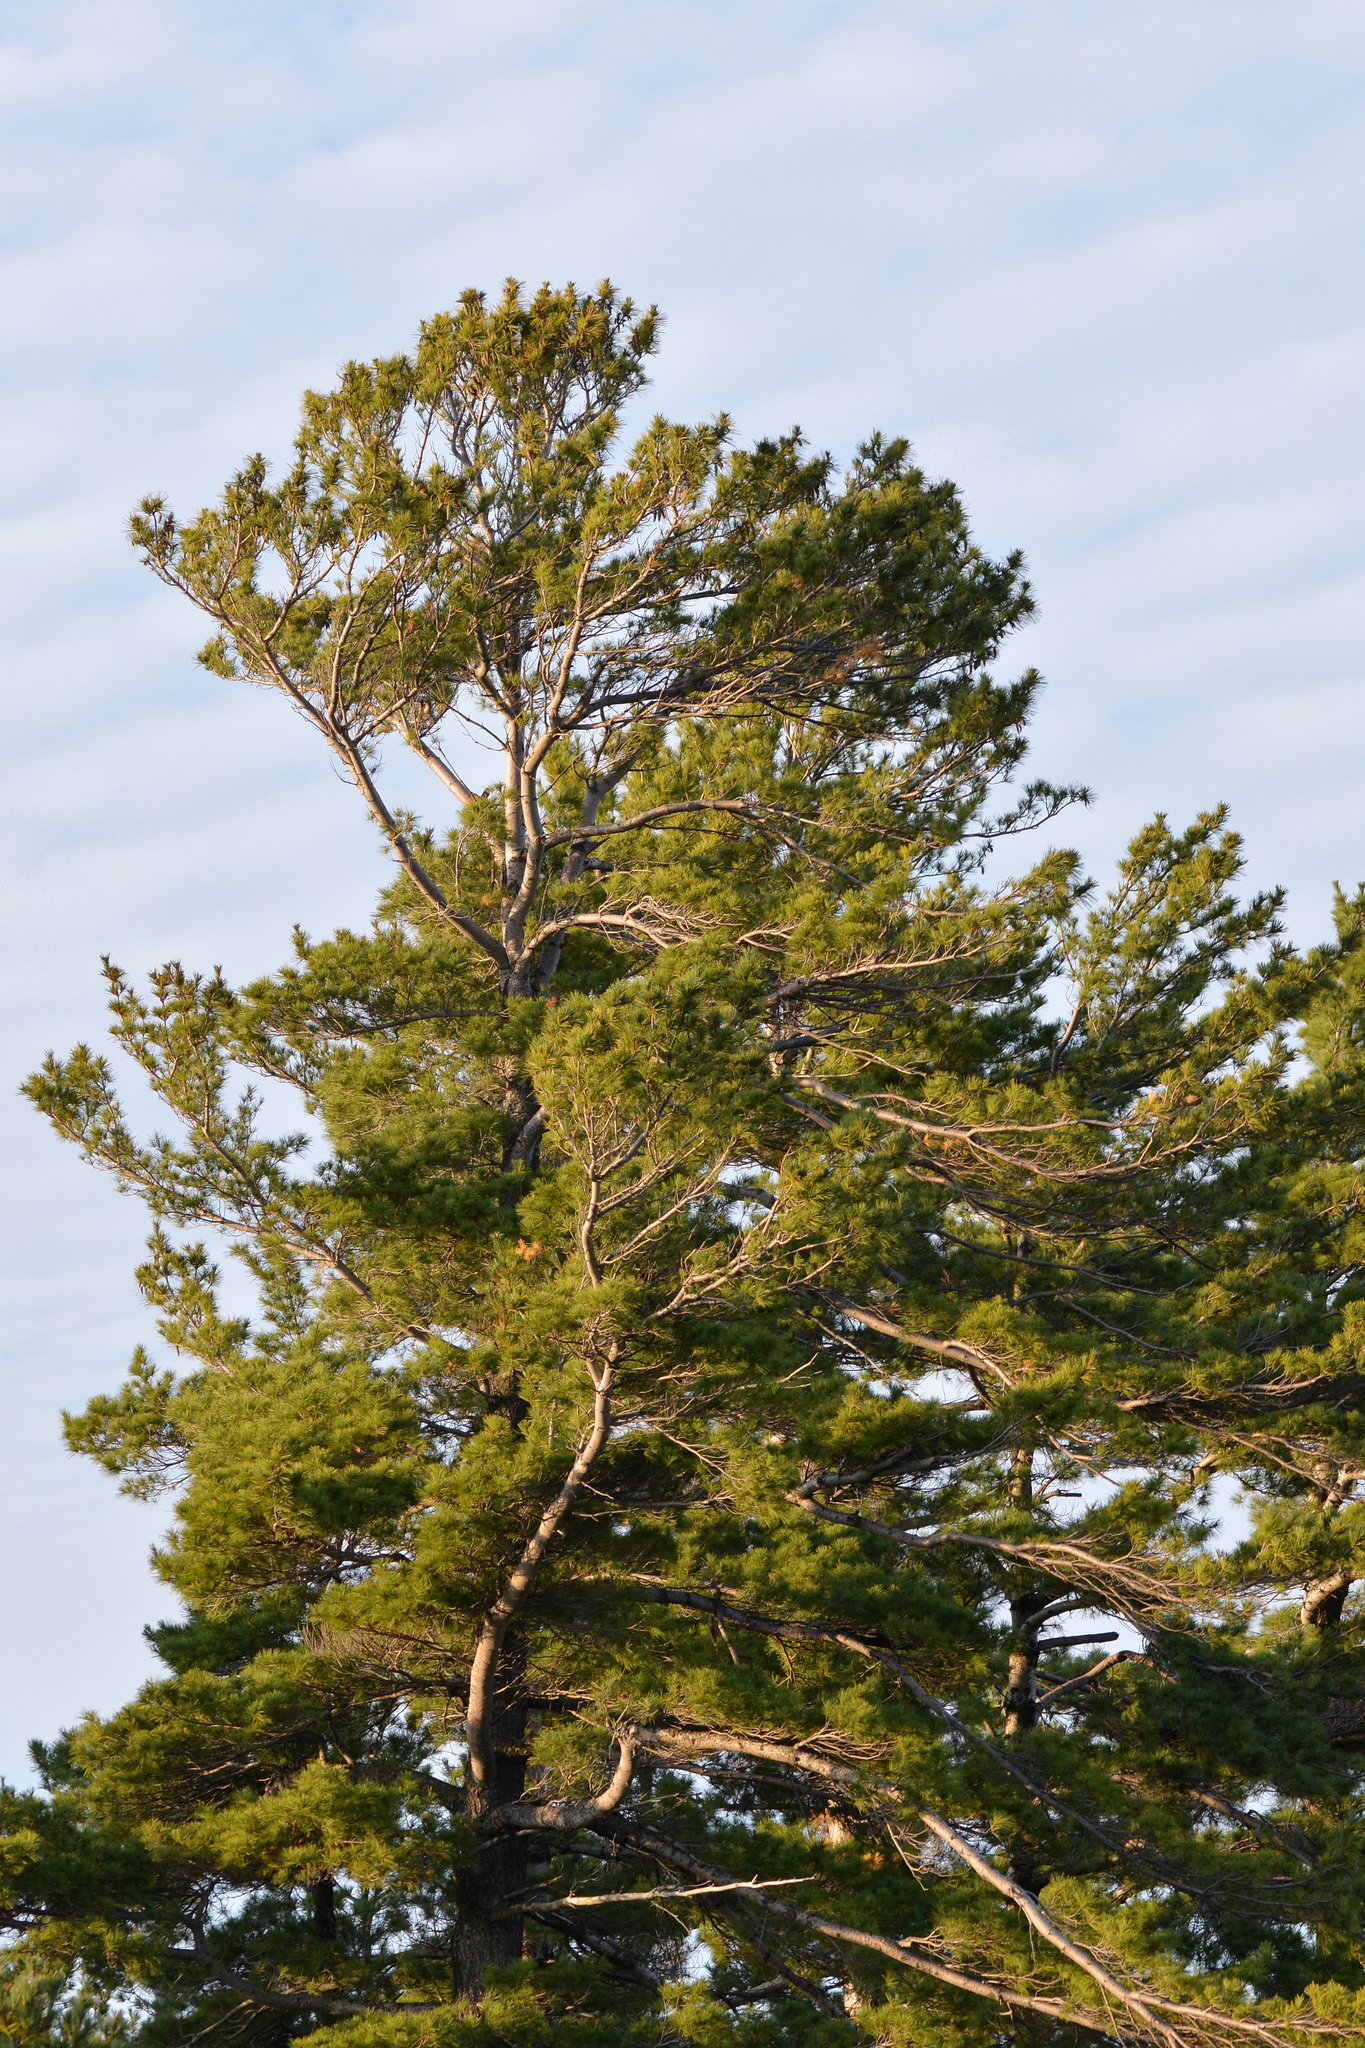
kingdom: Plantae
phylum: Tracheophyta
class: Pinopsida
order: Pinales
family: Pinaceae
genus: Pinus
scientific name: Pinus strobus
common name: Weymouth pine
